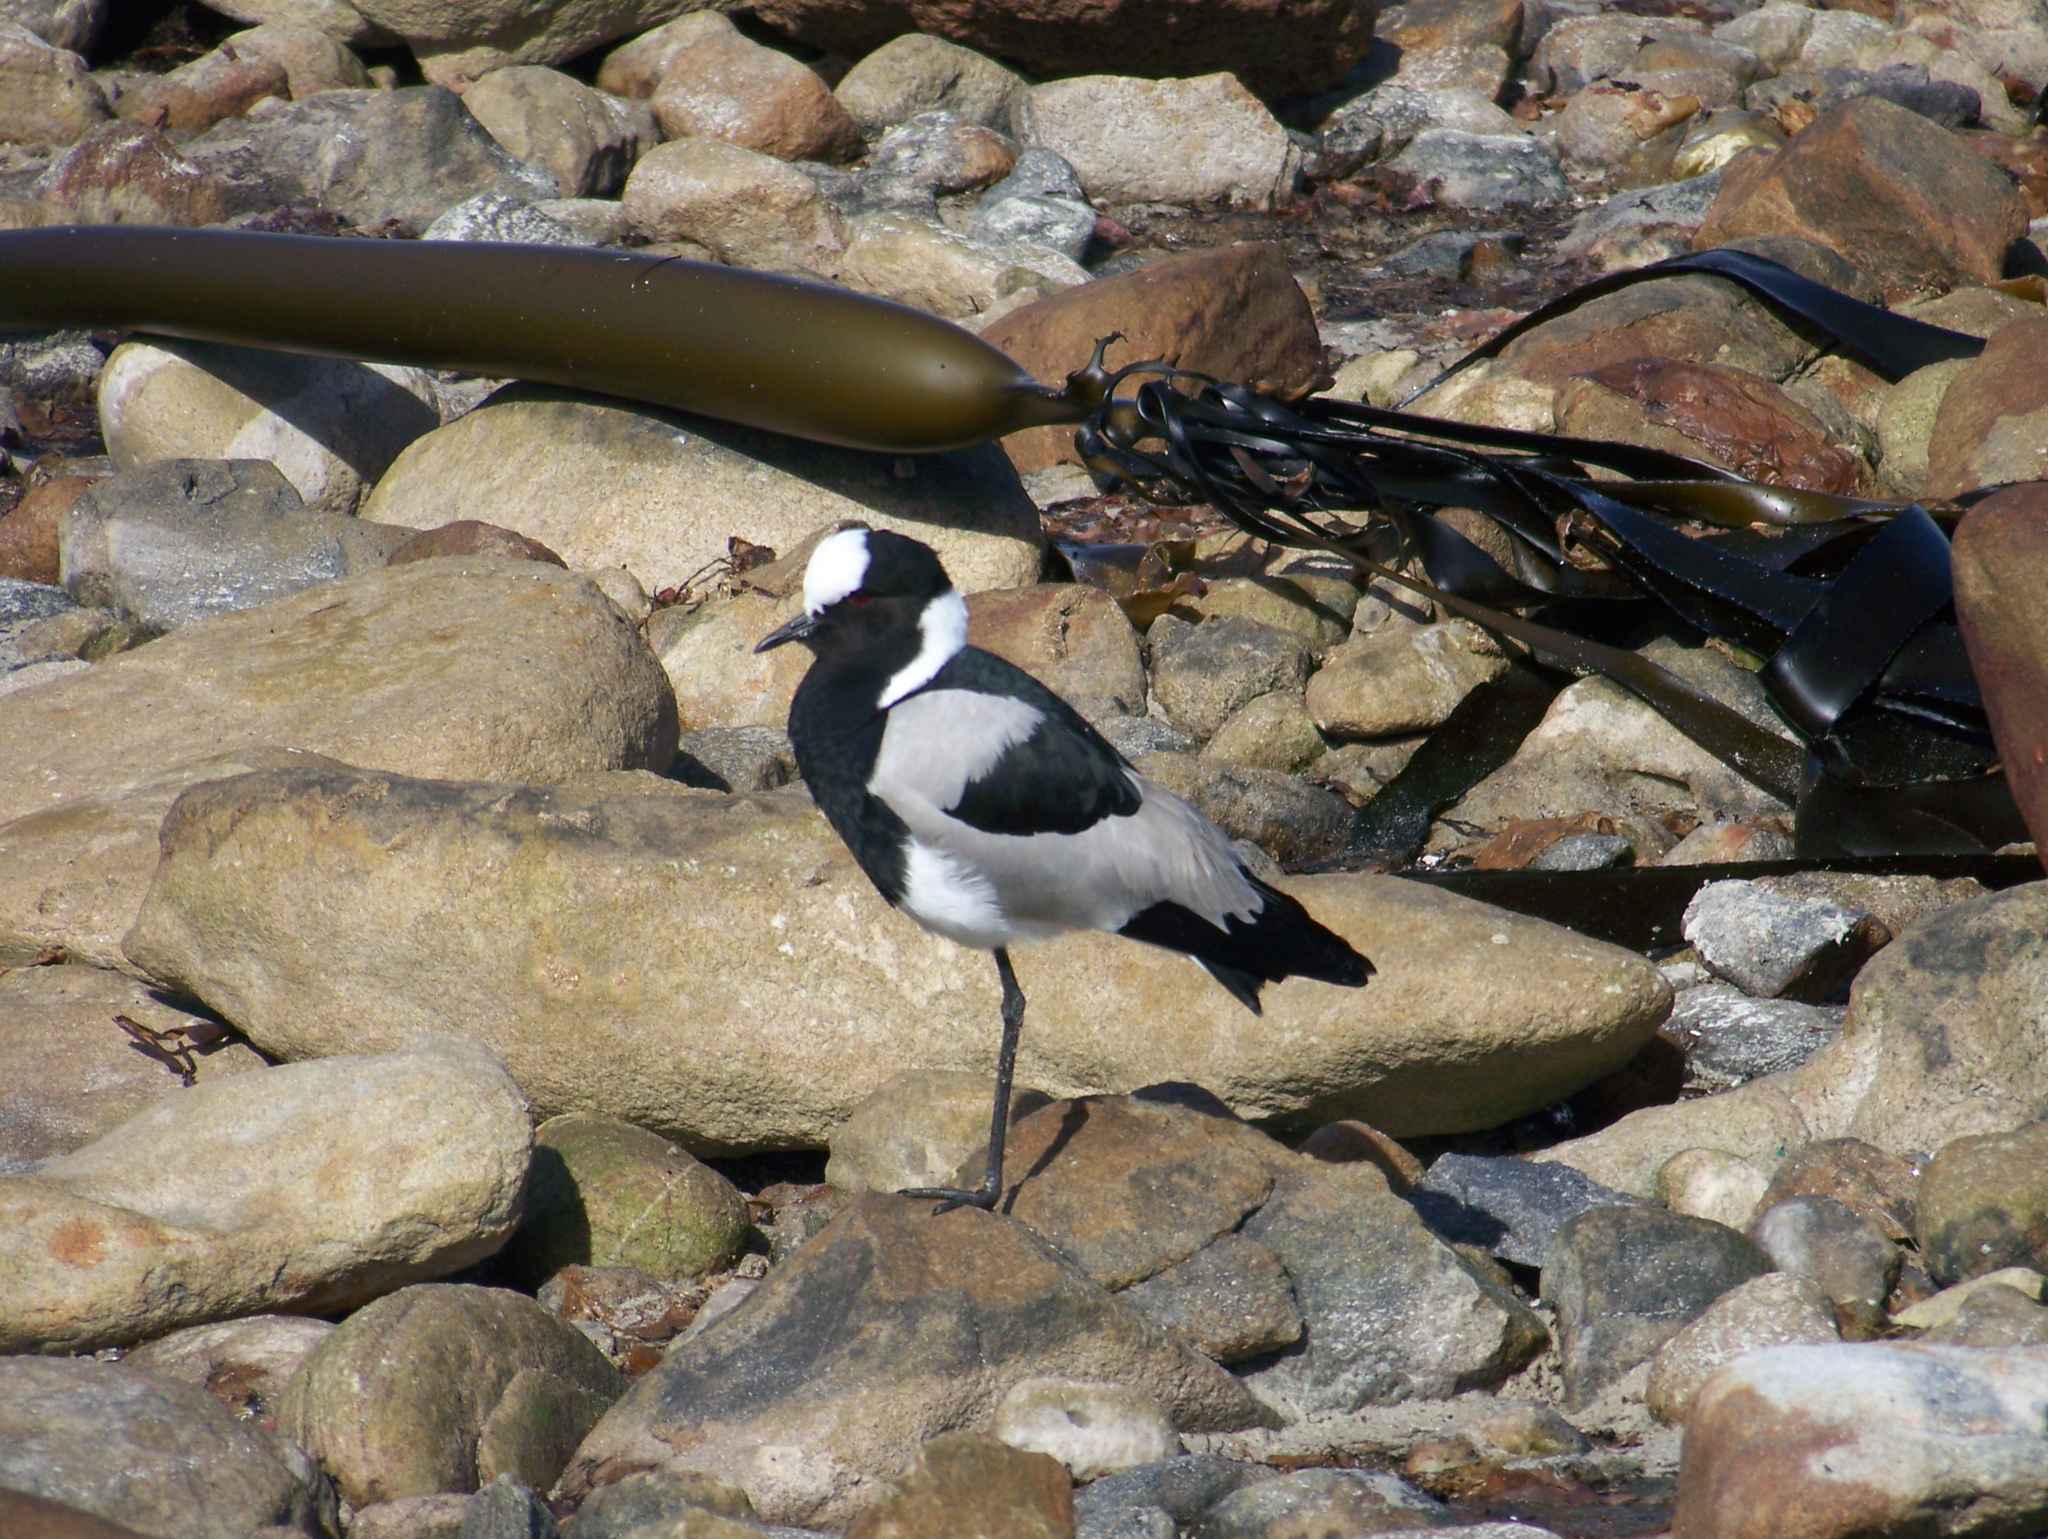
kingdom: Animalia
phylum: Chordata
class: Aves
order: Charadriiformes
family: Charadriidae
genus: Vanellus
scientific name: Vanellus armatus
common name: Blacksmith lapwing
